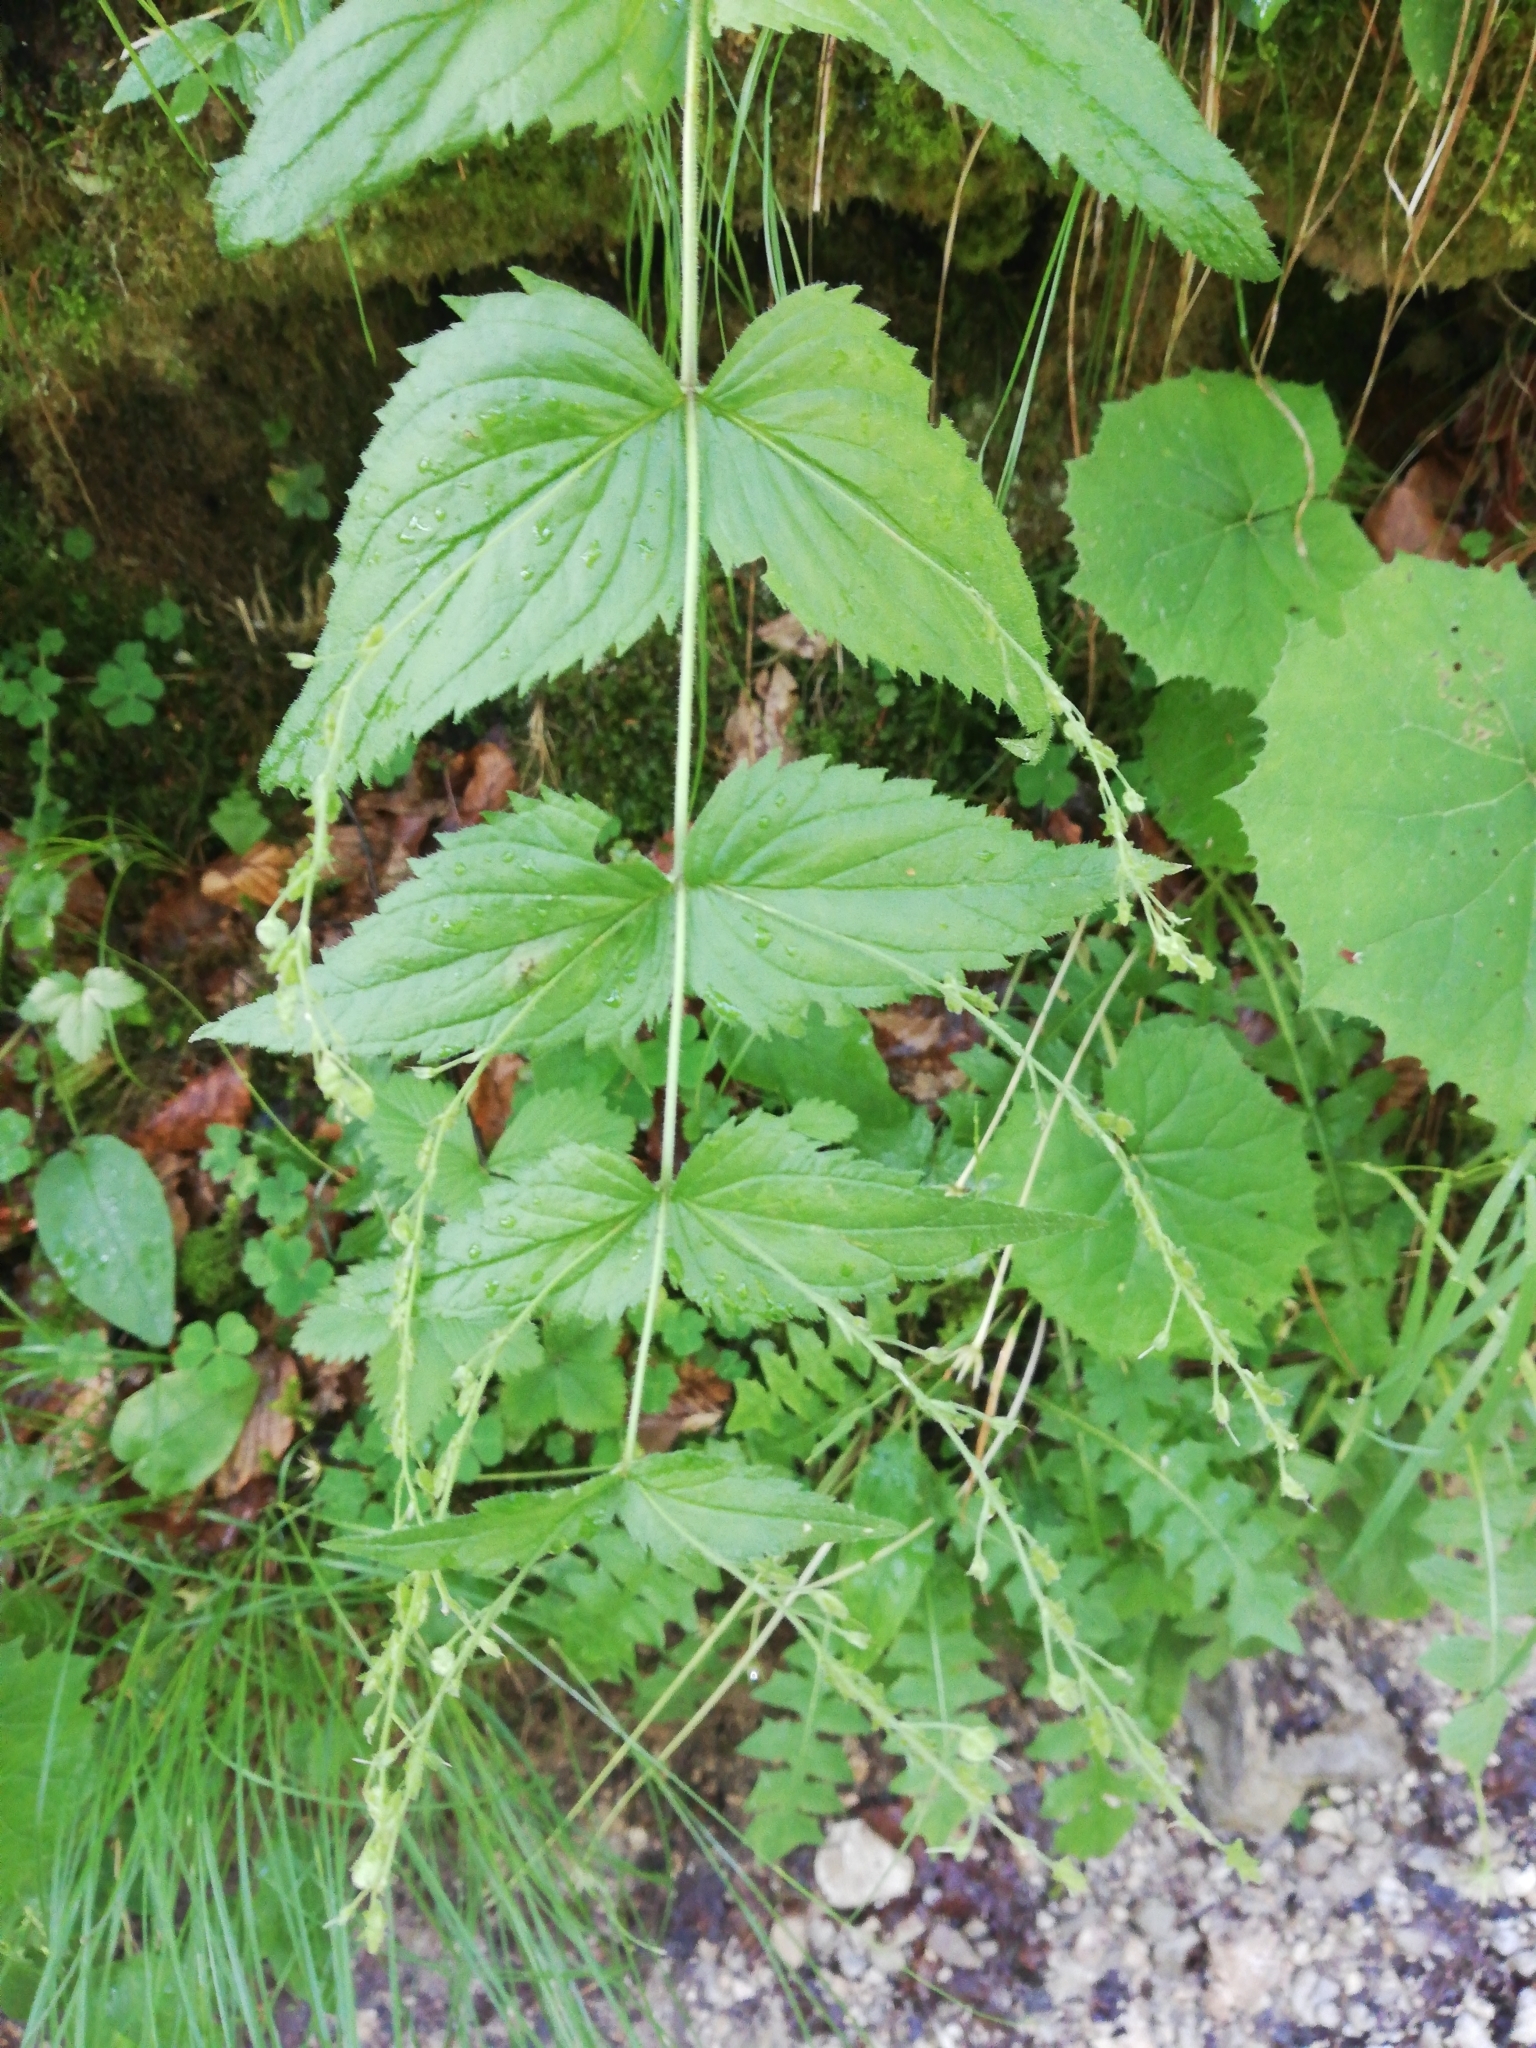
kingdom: Plantae
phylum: Tracheophyta
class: Magnoliopsida
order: Lamiales
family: Plantaginaceae
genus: Veronica
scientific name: Veronica urticifolia
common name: Nettle-leaf speedwell
